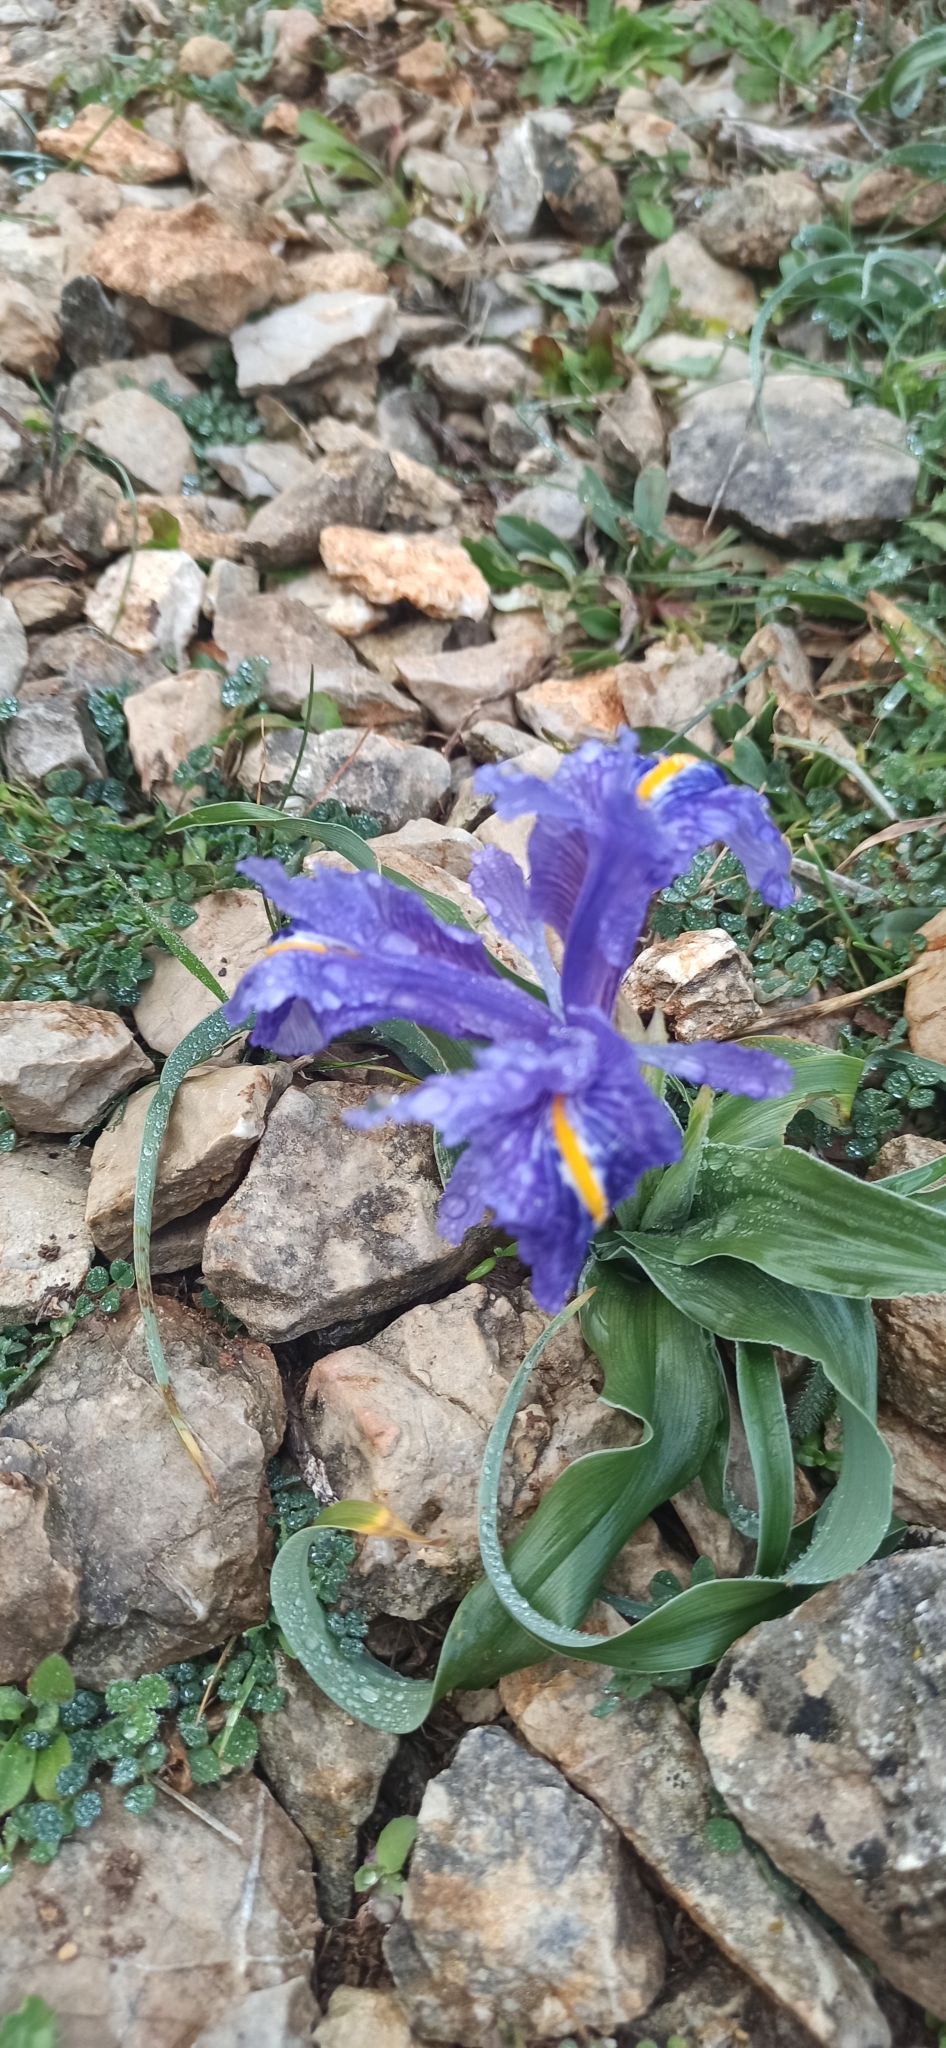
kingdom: Plantae
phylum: Tracheophyta
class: Liliopsida
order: Asparagales
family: Iridaceae
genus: Iris
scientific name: Iris planifolia
